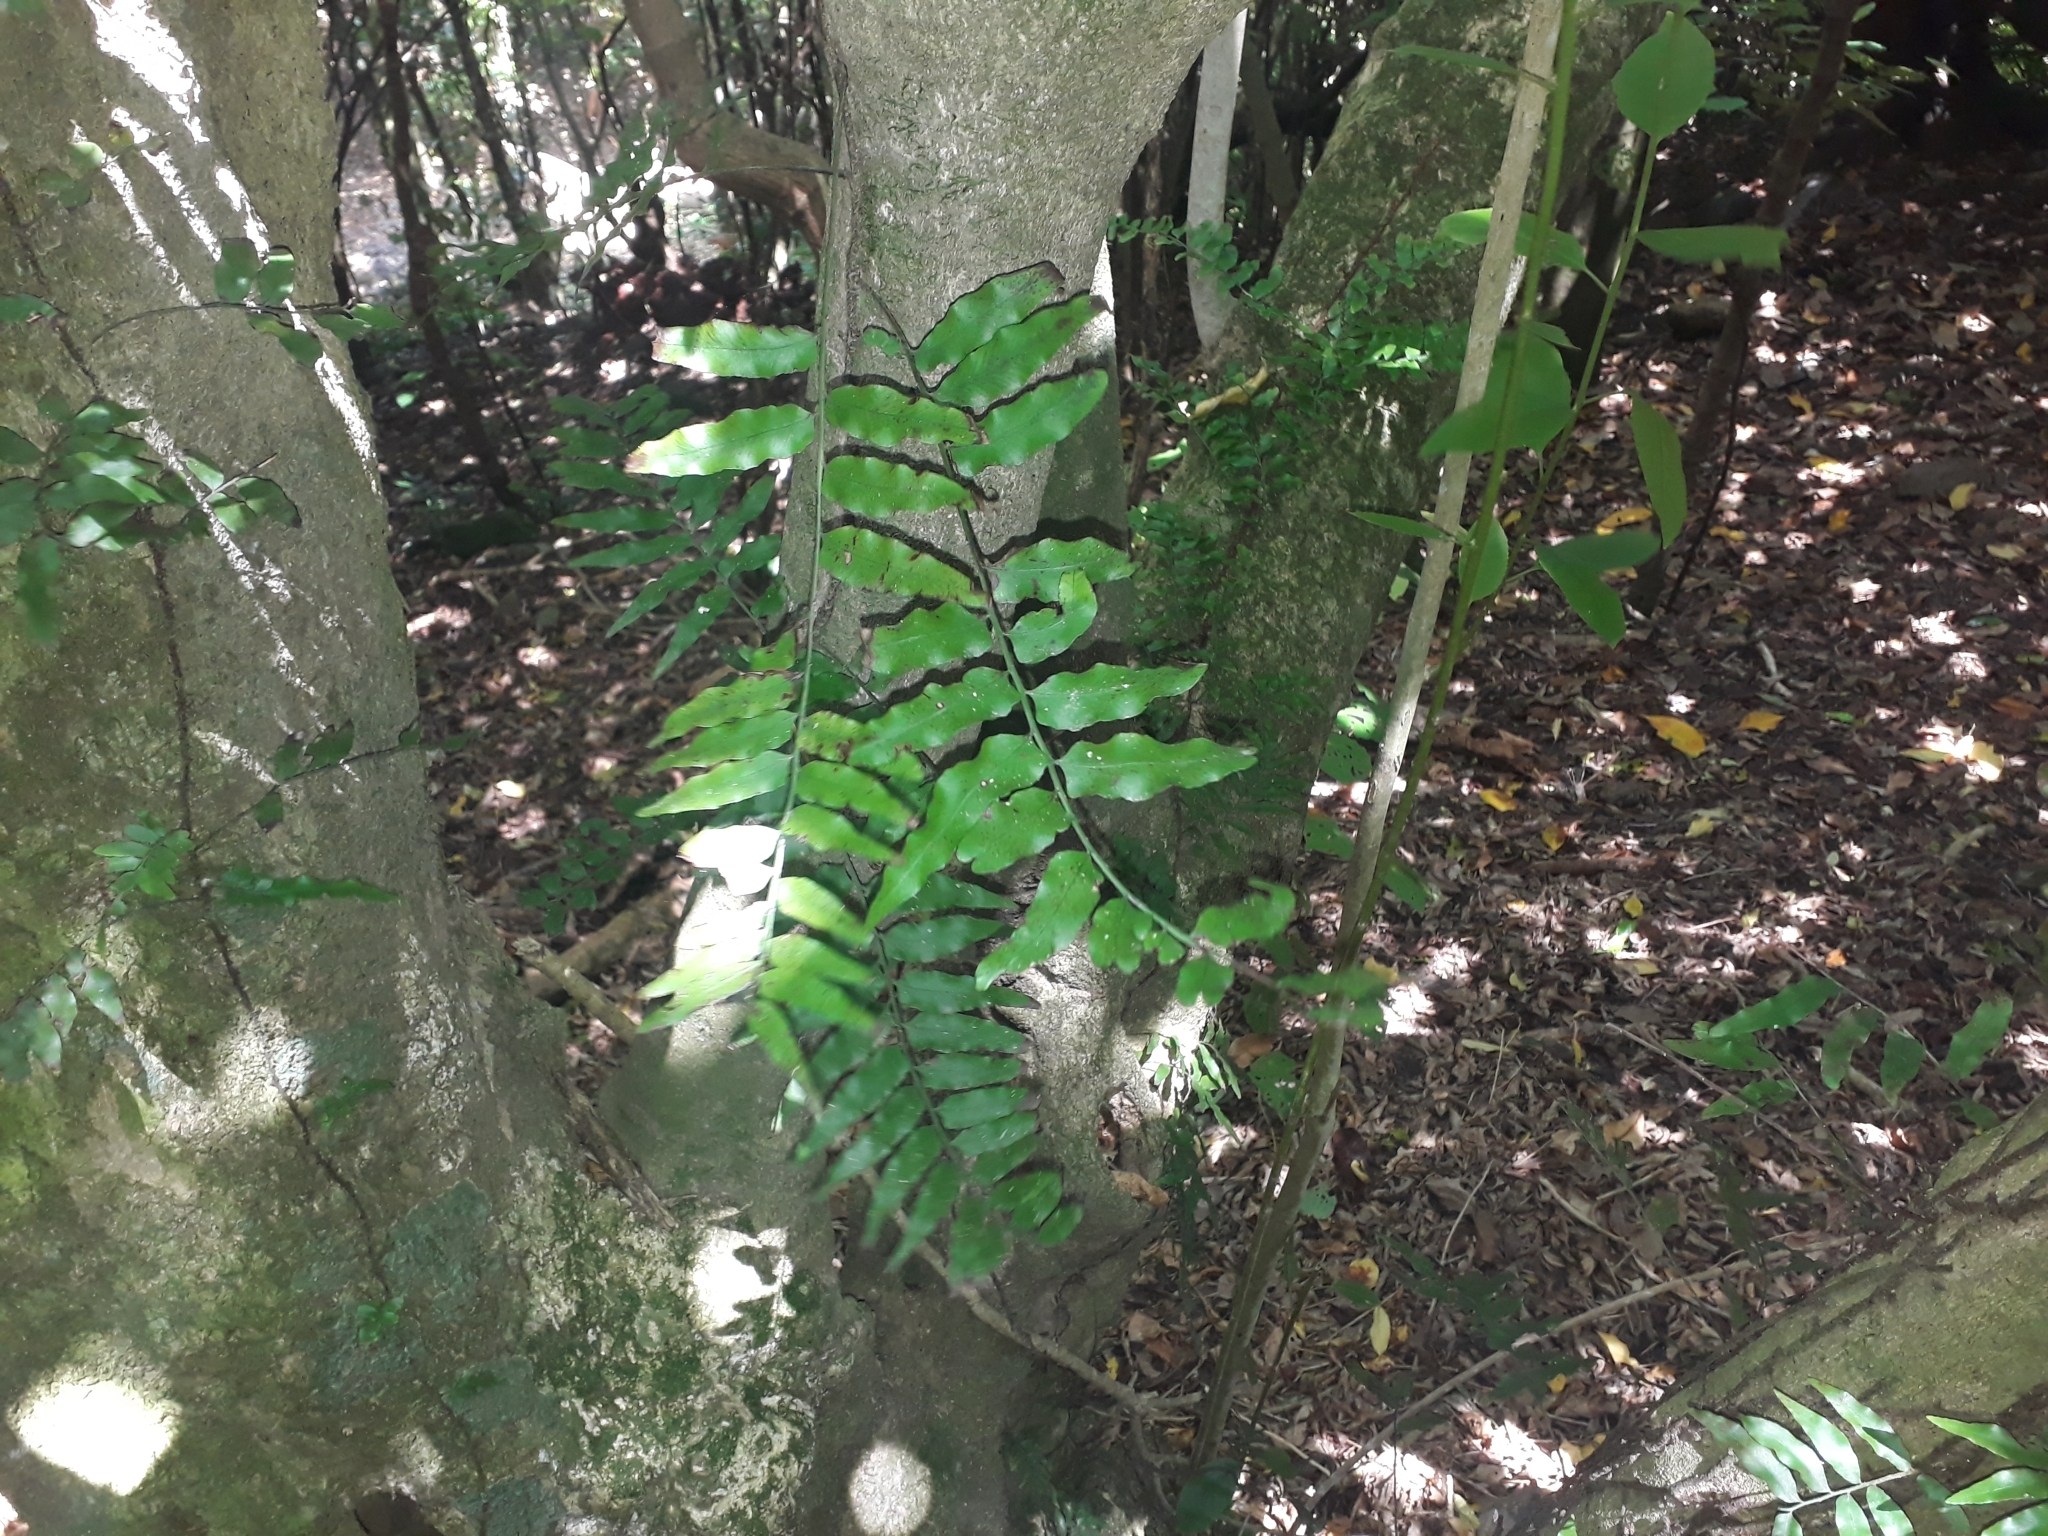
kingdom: Plantae
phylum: Tracheophyta
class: Polypodiopsida
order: Polypodiales
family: Tectariaceae
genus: Arthropteris
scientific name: Arthropteris tenella
